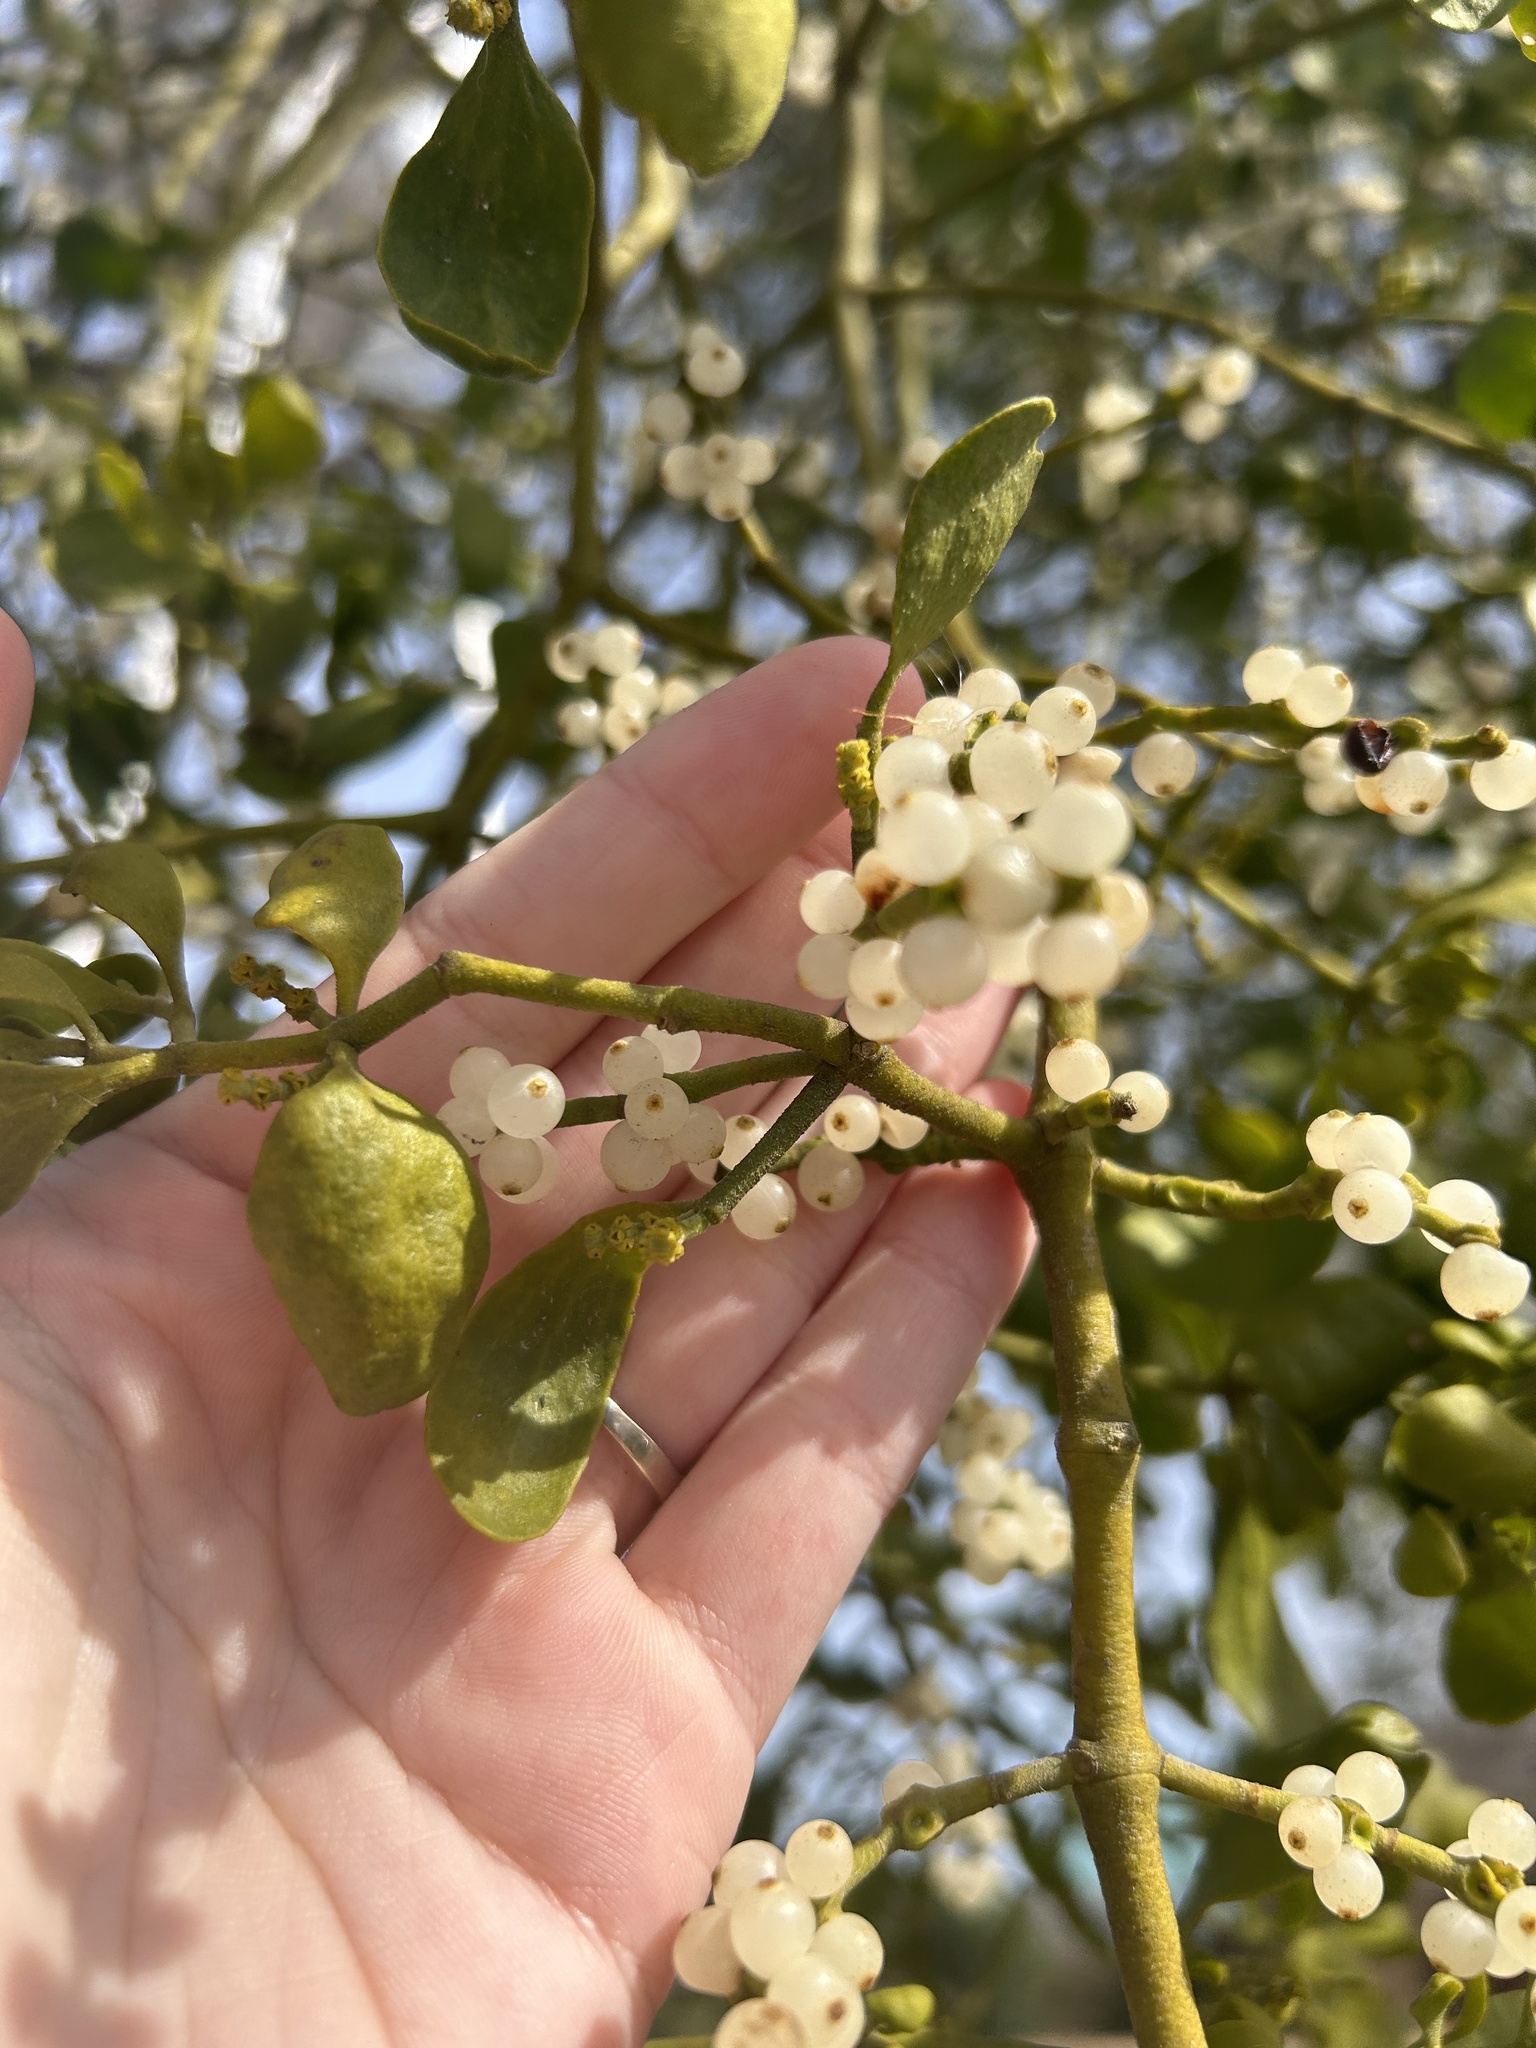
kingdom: Plantae
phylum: Tracheophyta
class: Magnoliopsida
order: Santalales
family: Viscaceae
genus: Phoradendron
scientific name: Phoradendron leucarpum
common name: Pacific mistletoe
